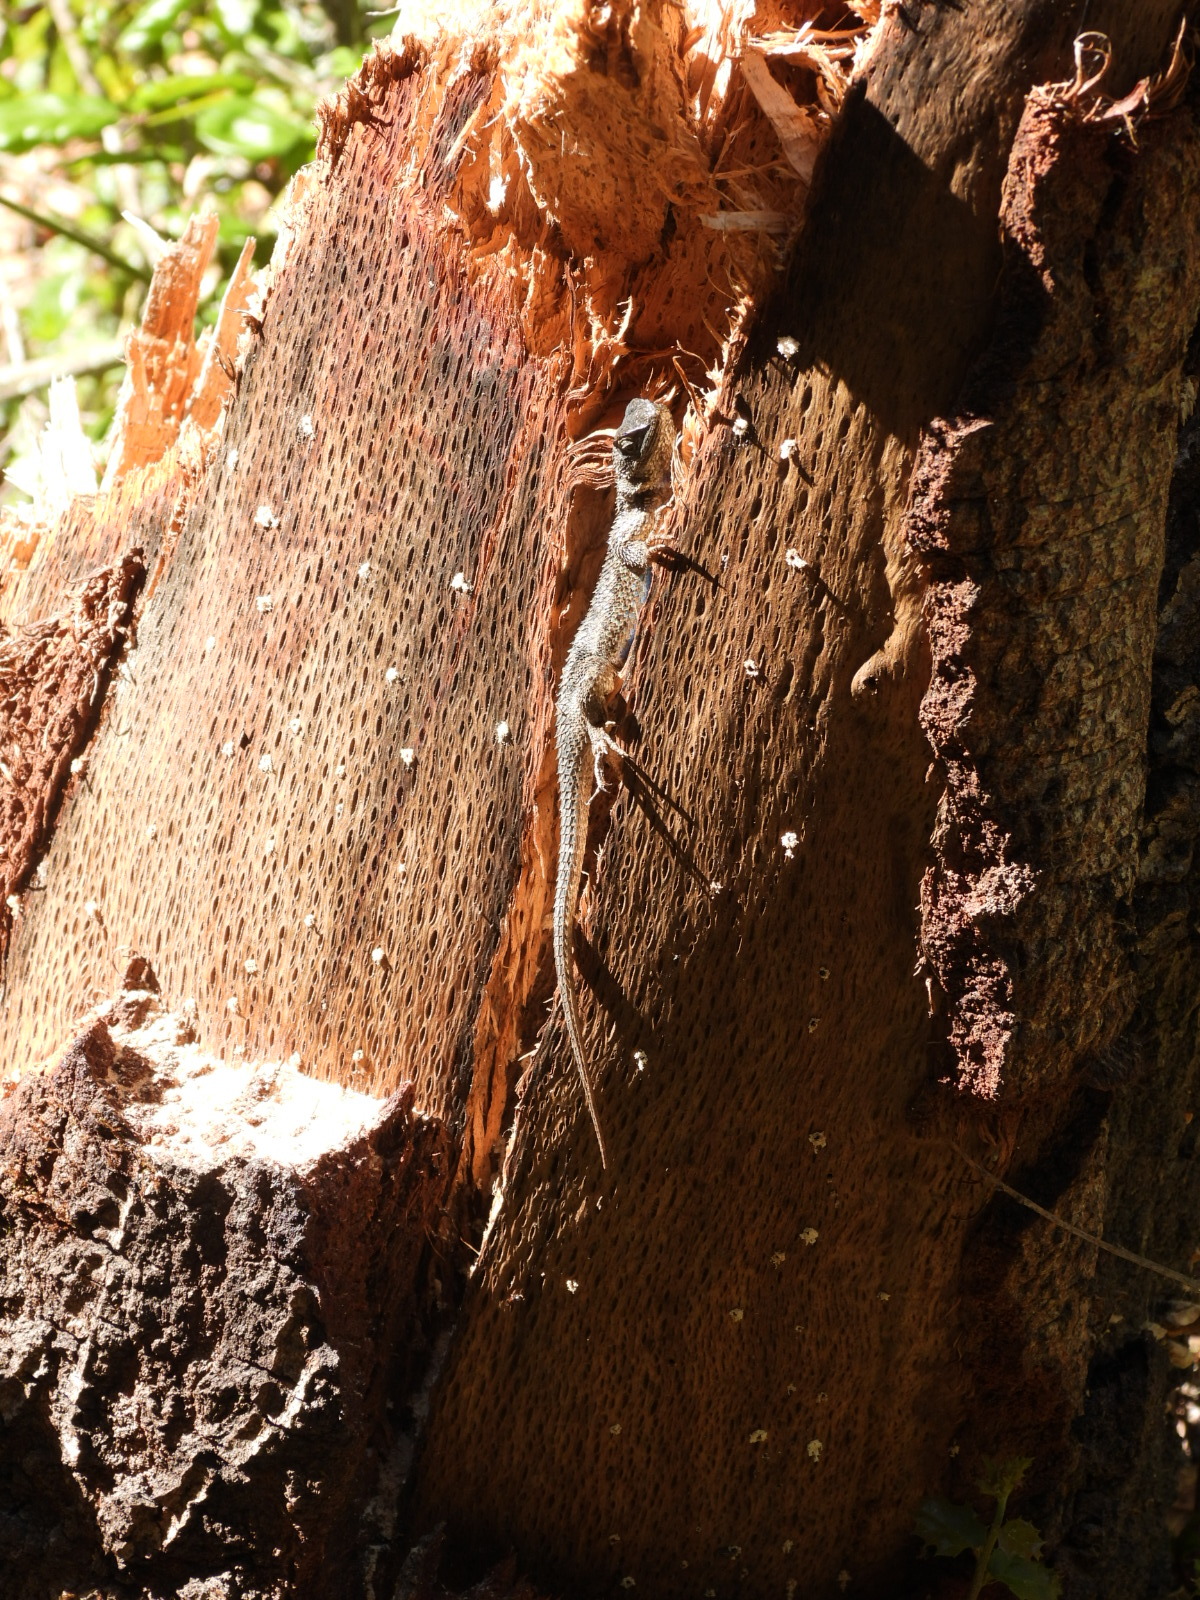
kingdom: Animalia
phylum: Chordata
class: Squamata
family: Phrynosomatidae
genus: Sceloporus
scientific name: Sceloporus occidentalis
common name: Western fence lizard
